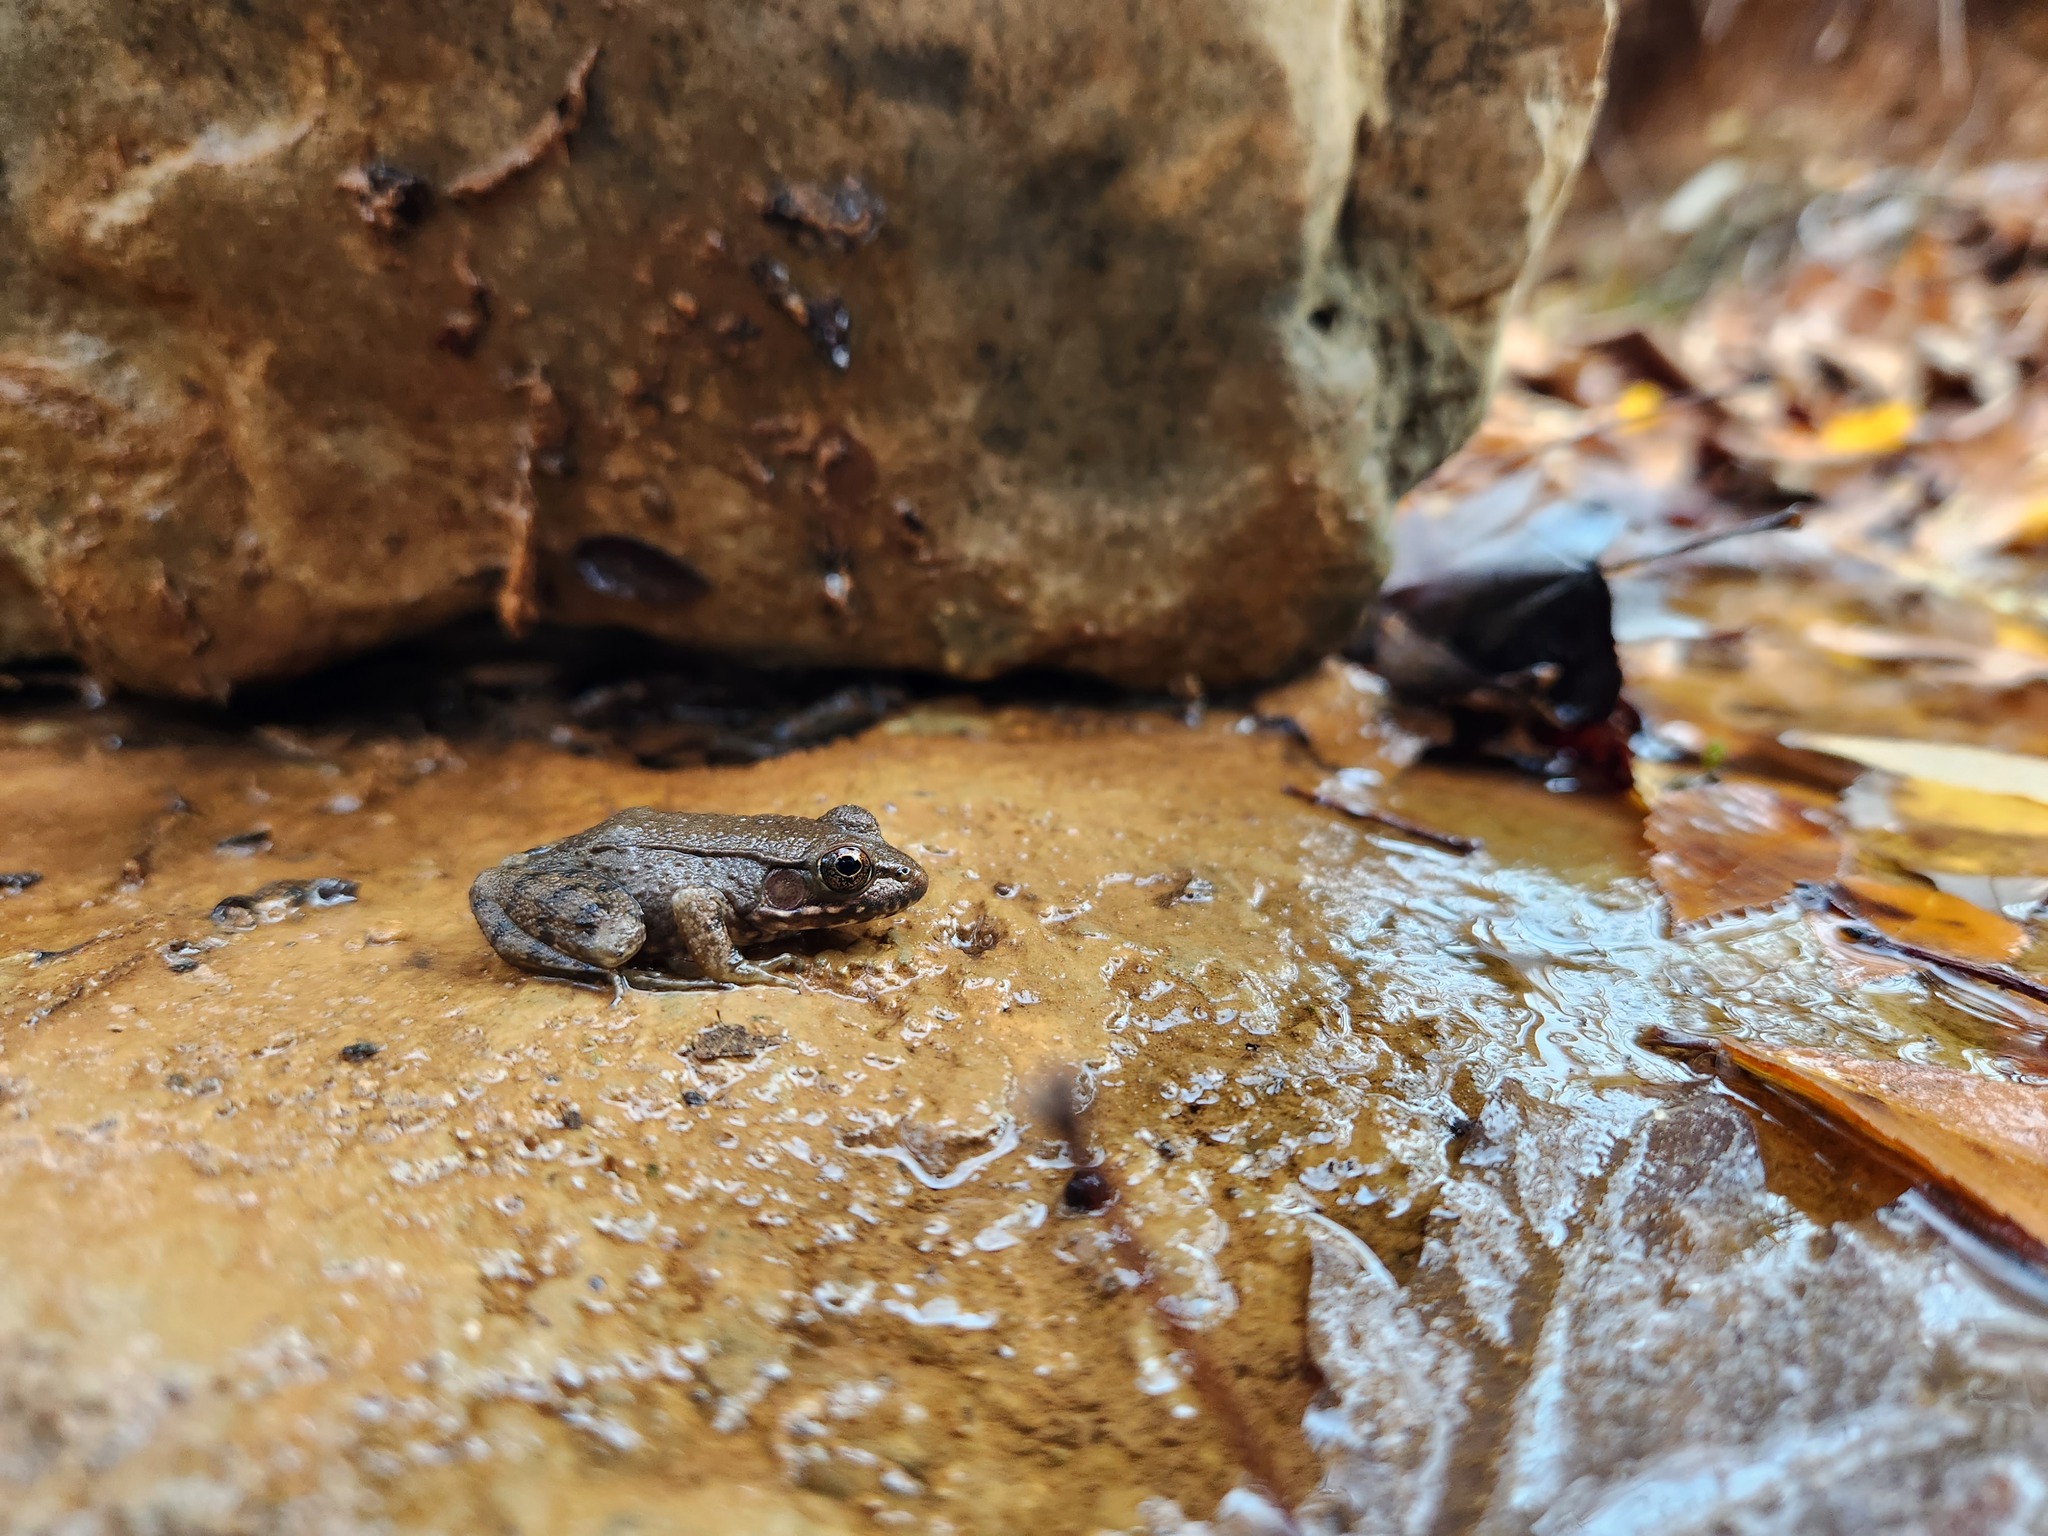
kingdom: Animalia
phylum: Chordata
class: Amphibia
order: Anura
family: Ranidae
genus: Lithobates
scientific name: Lithobates clamitans
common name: Green frog
